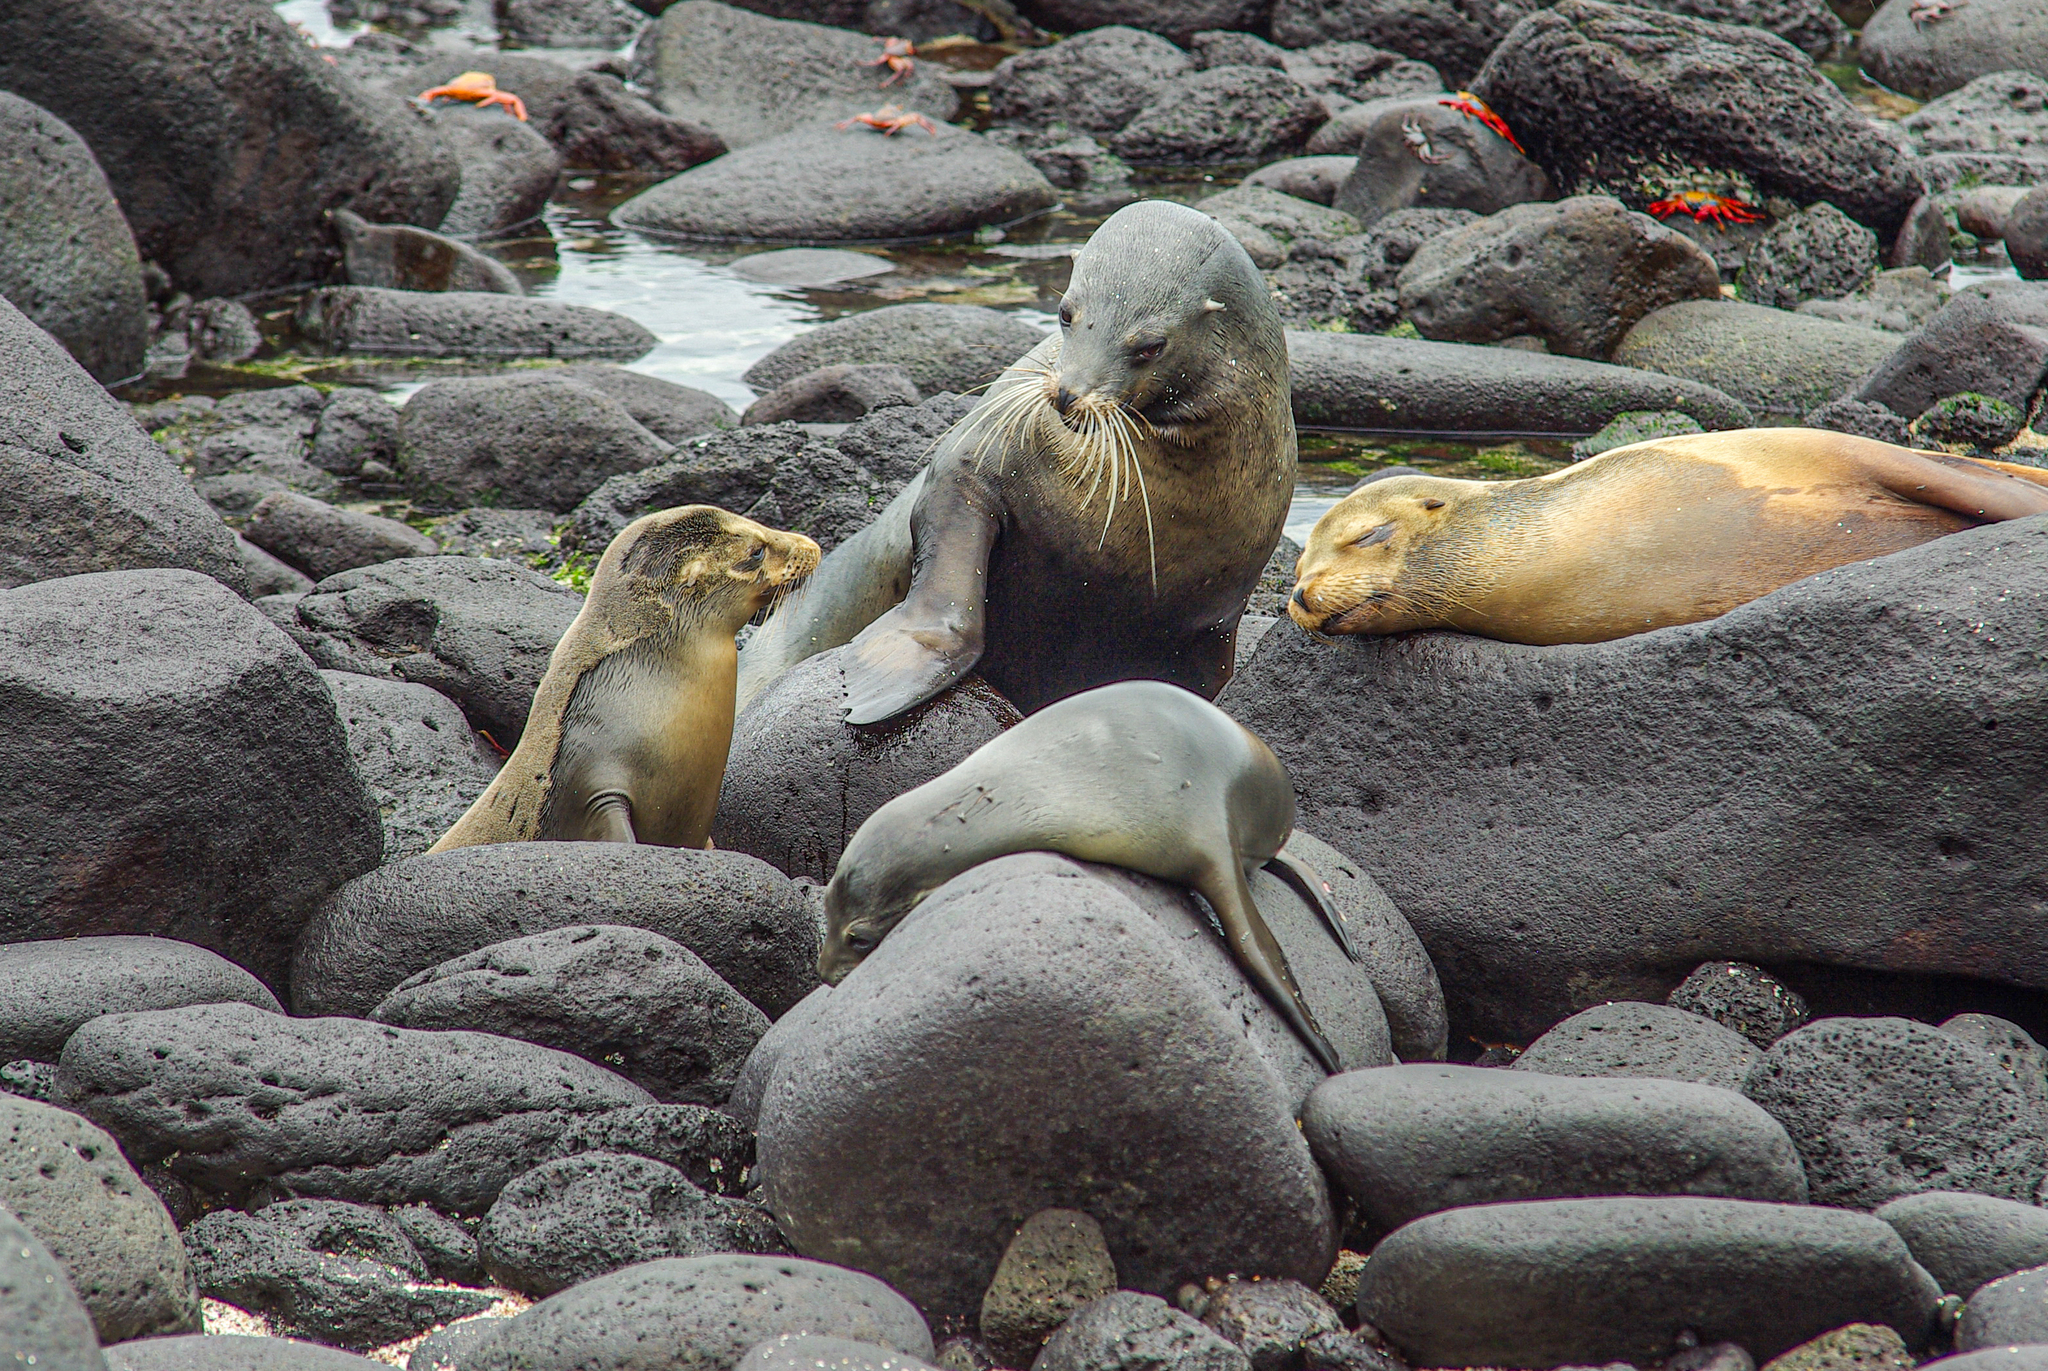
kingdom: Animalia
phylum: Chordata
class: Mammalia
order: Carnivora
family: Otariidae
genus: Zalophus
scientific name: Zalophus wollebaeki
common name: Galapagos sea lion
